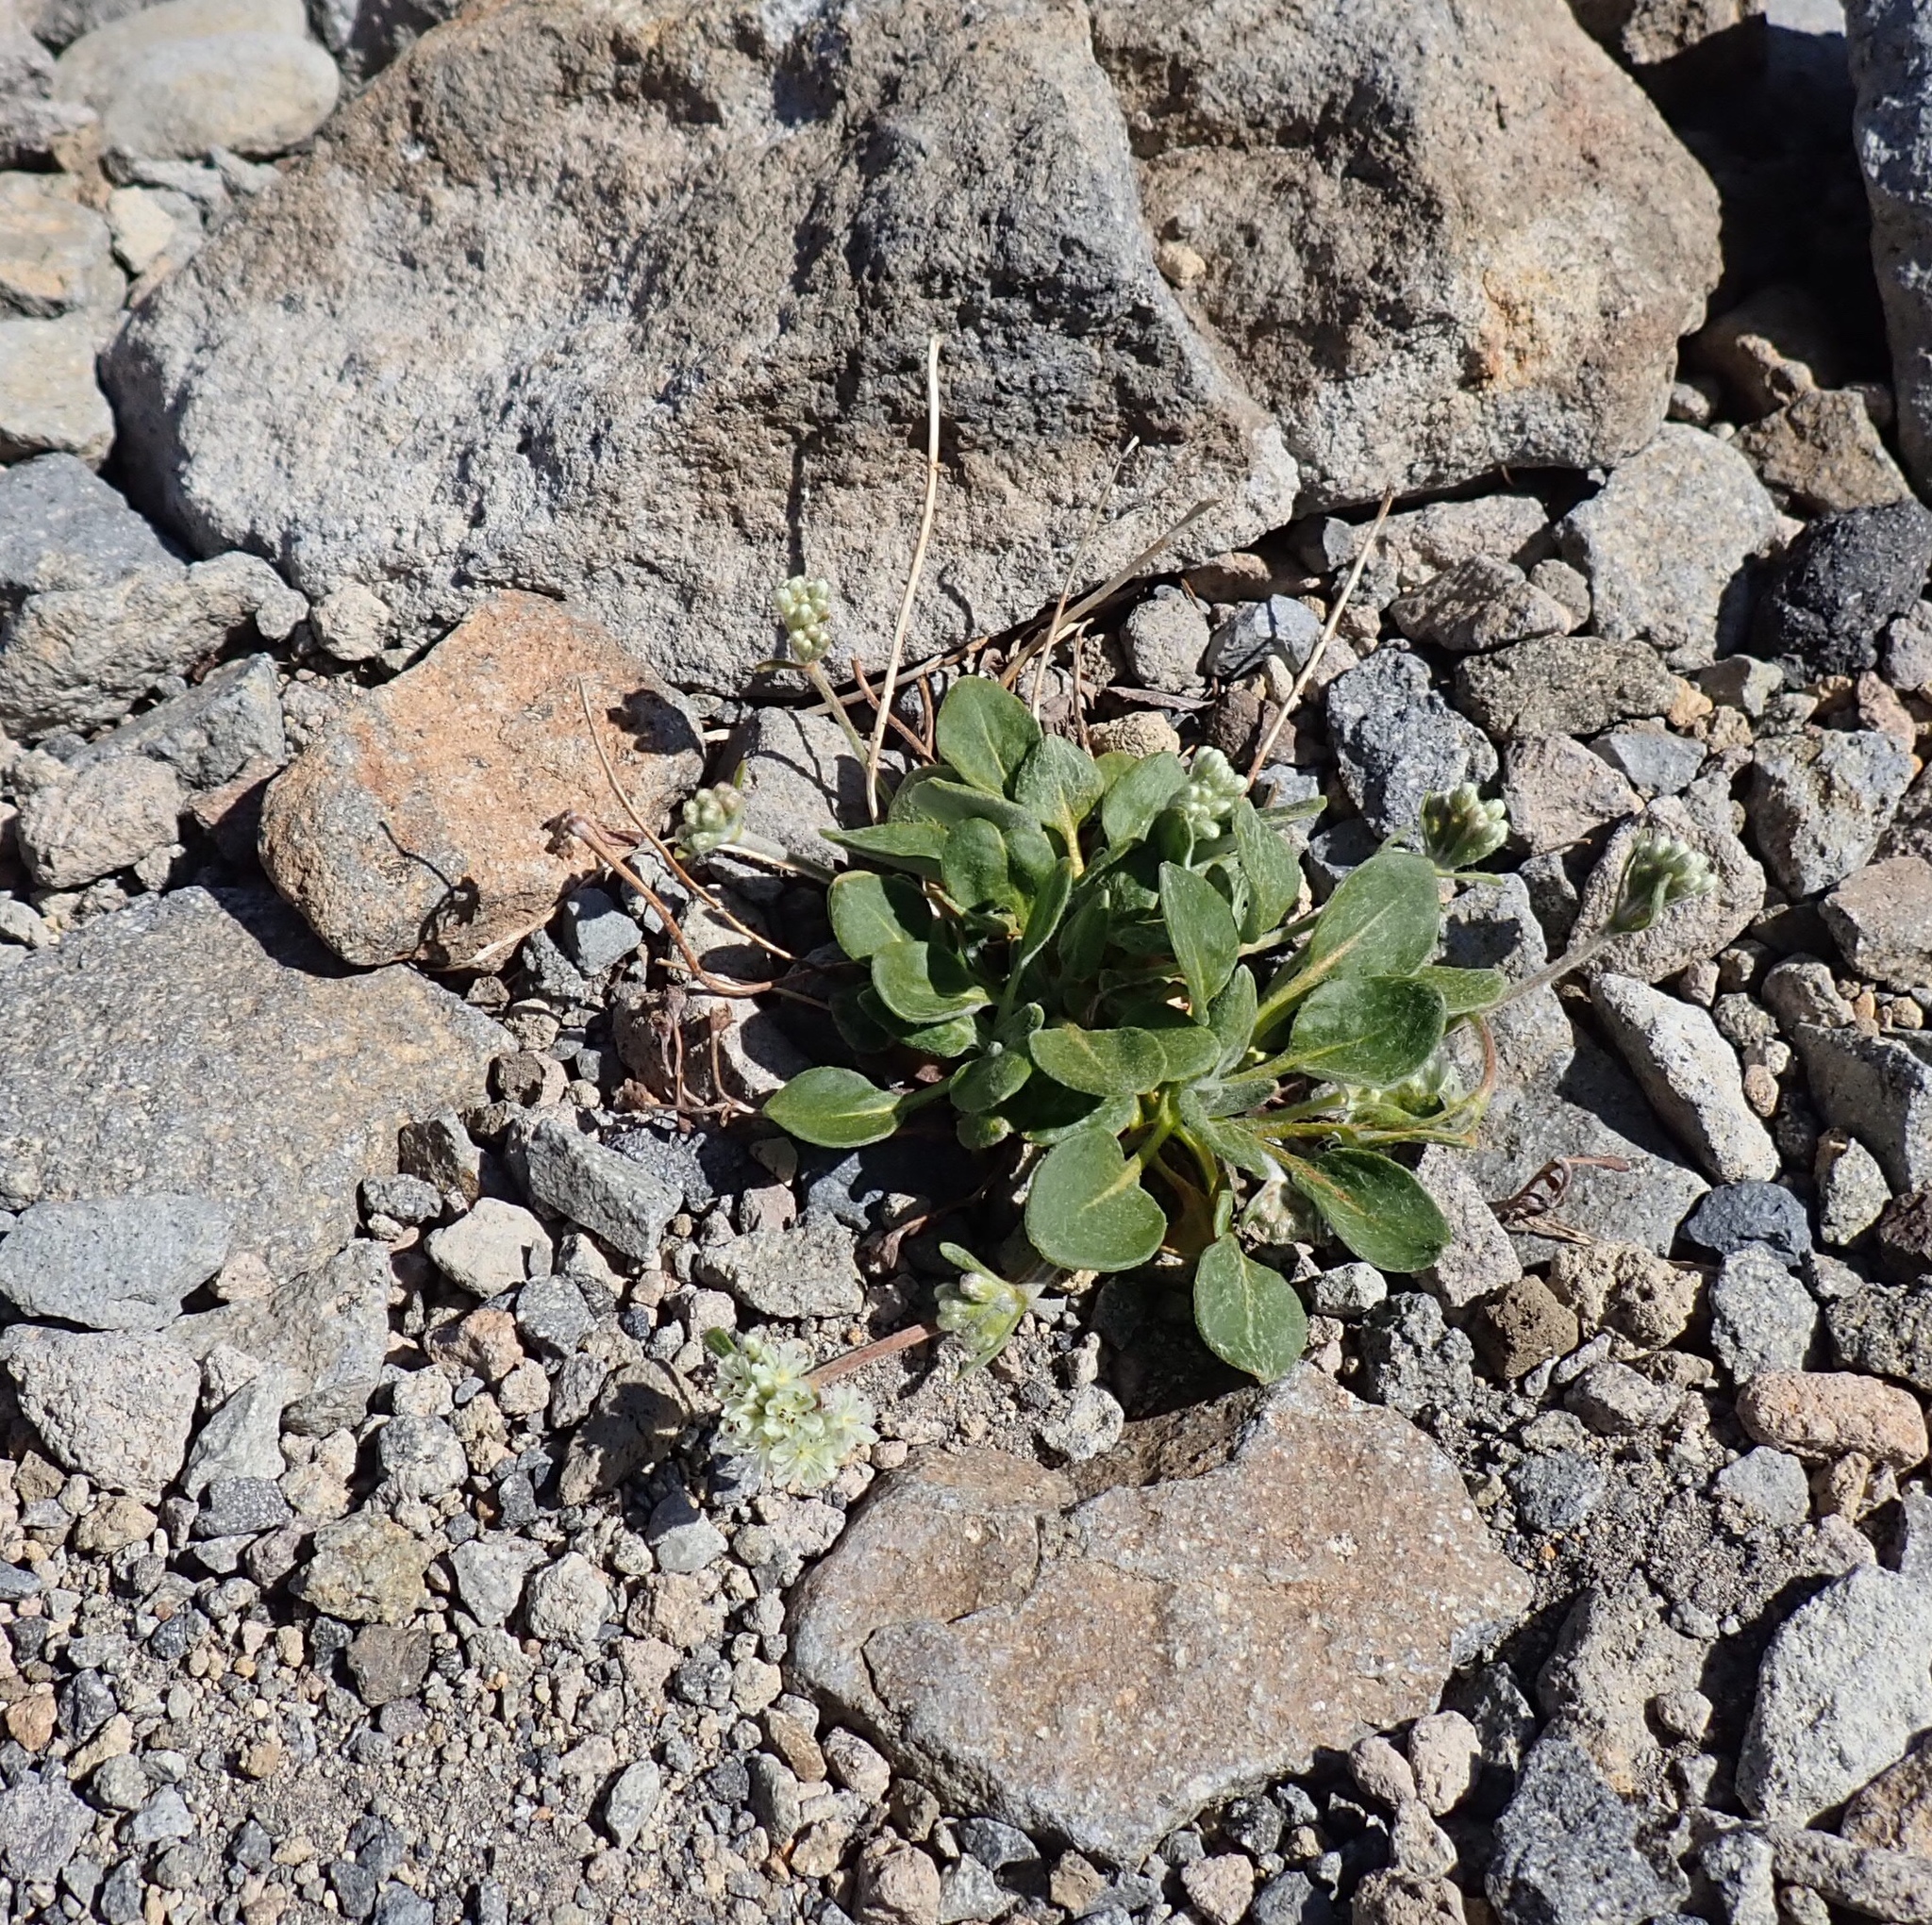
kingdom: Plantae
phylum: Tracheophyta
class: Magnoliopsida
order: Caryophyllales
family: Polygonaceae
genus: Eriogonum
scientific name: Eriogonum pyrolifolium
